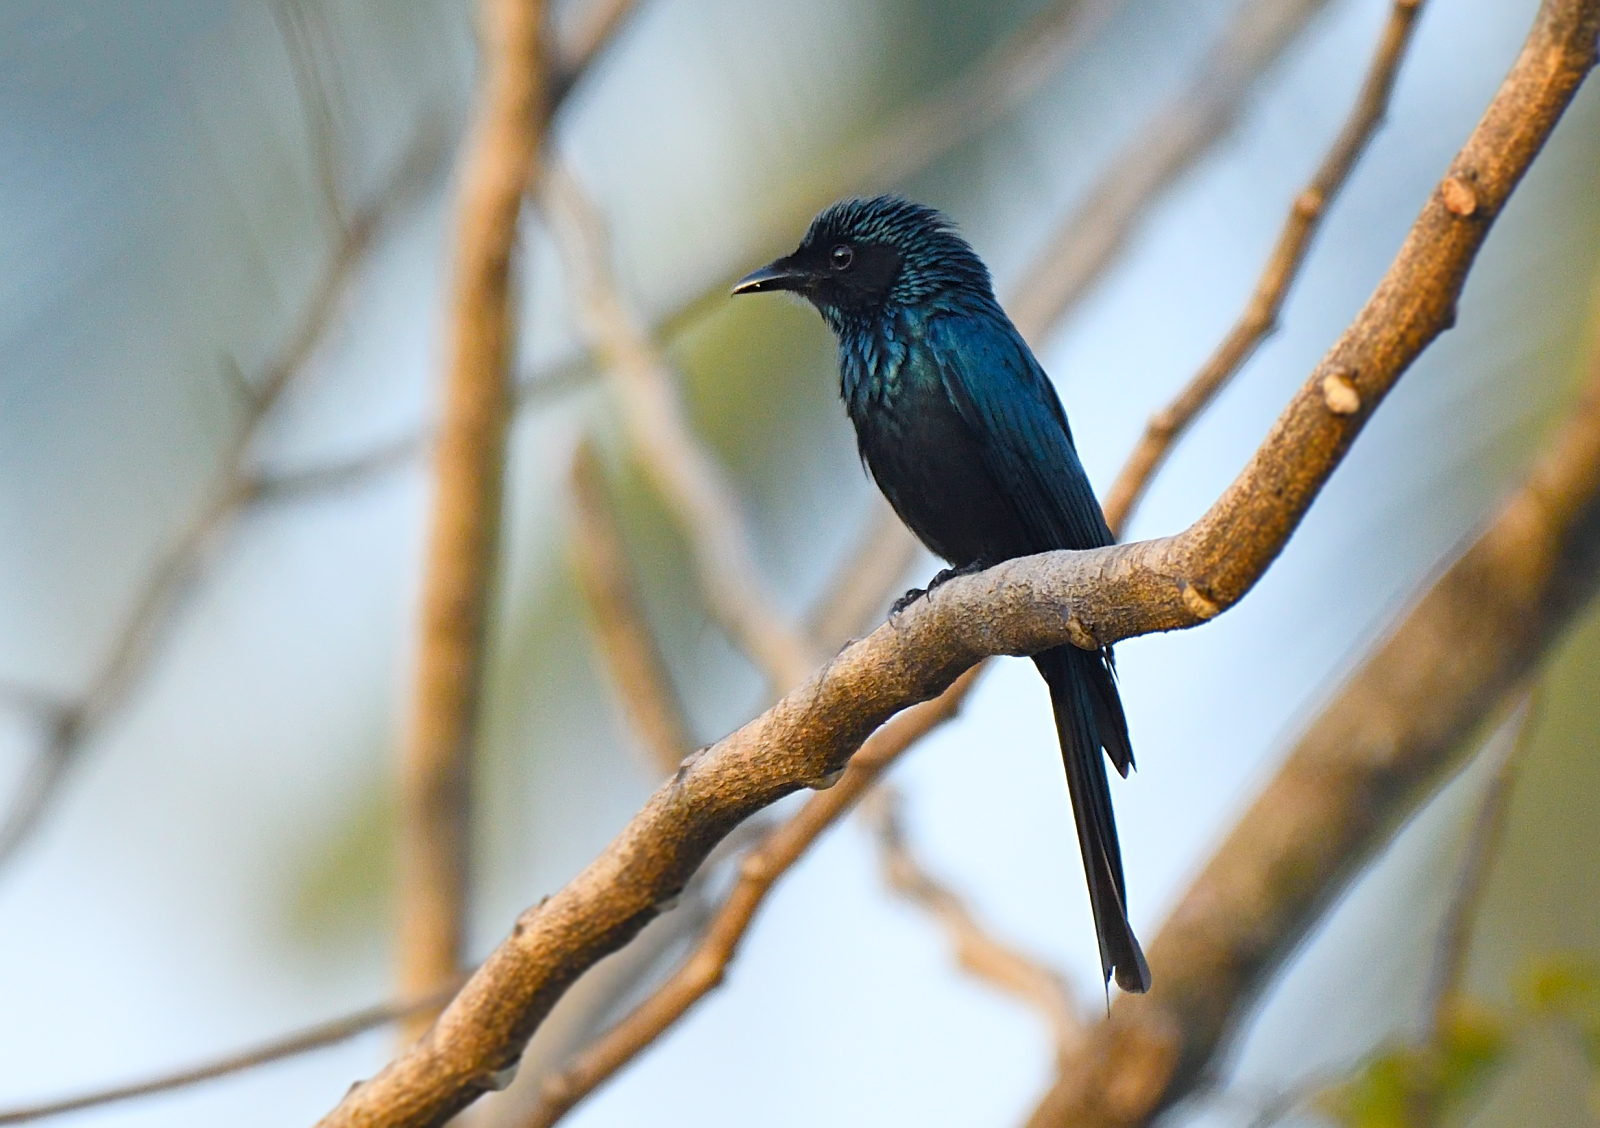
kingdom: Animalia
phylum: Chordata
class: Aves
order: Passeriformes
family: Dicruridae
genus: Dicrurus
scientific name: Dicrurus aeneus
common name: Bronzed drongo
